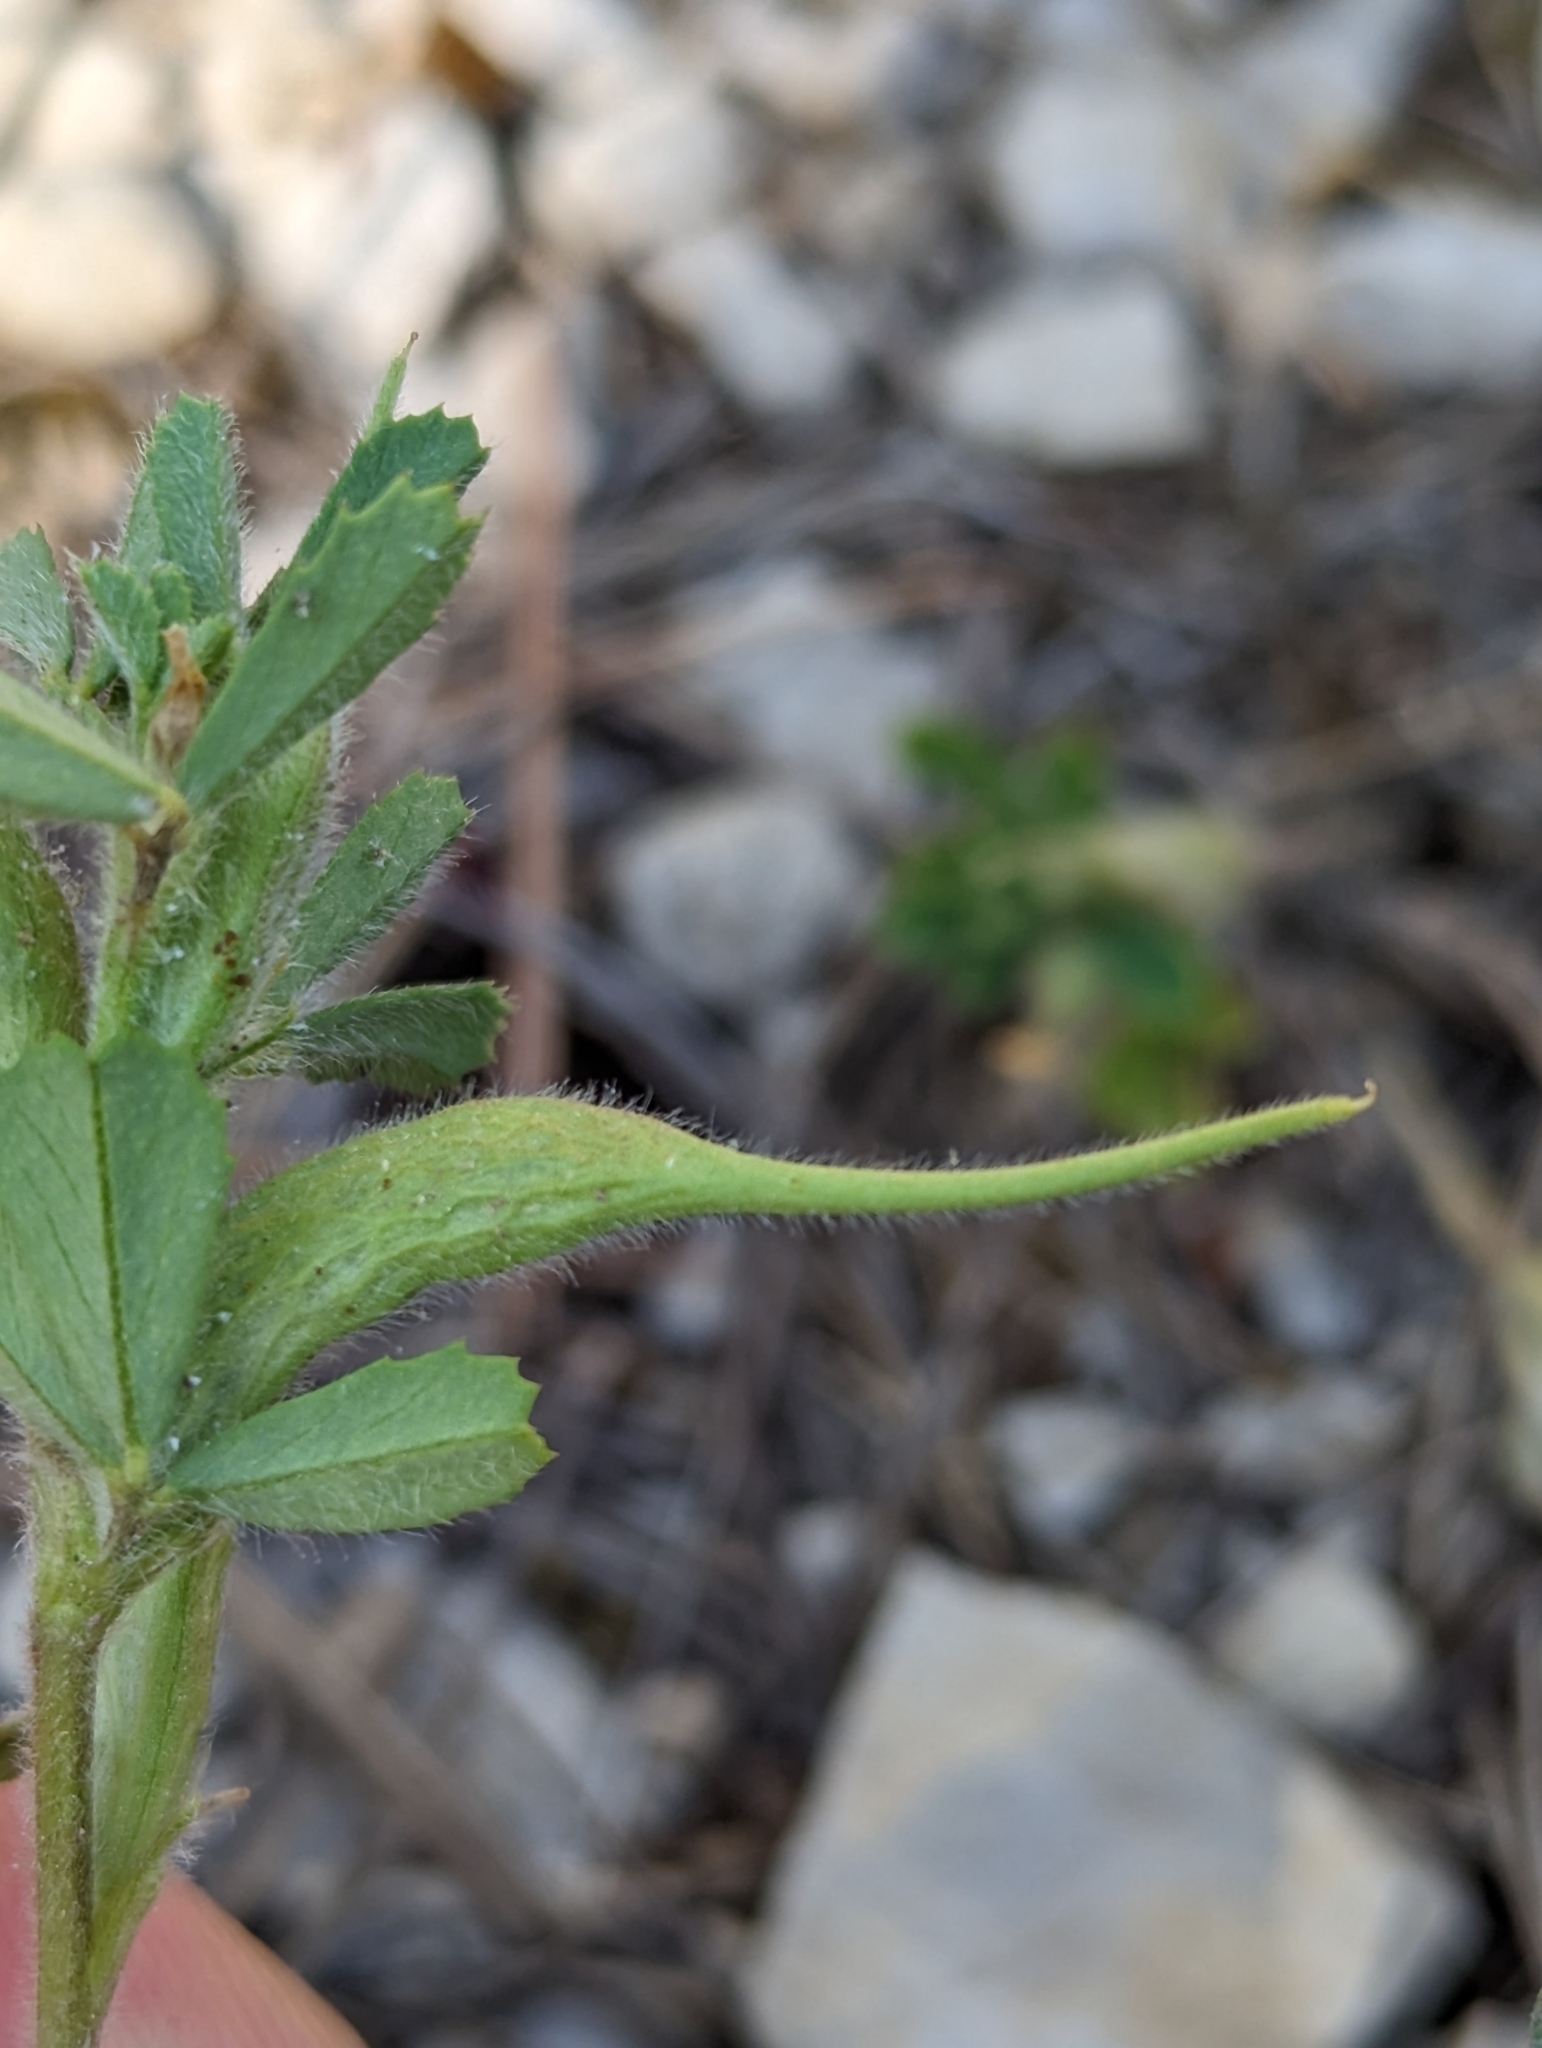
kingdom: Plantae
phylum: Tracheophyta
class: Magnoliopsida
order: Fabales
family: Fabaceae
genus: Trigonella
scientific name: Trigonella gladiata
